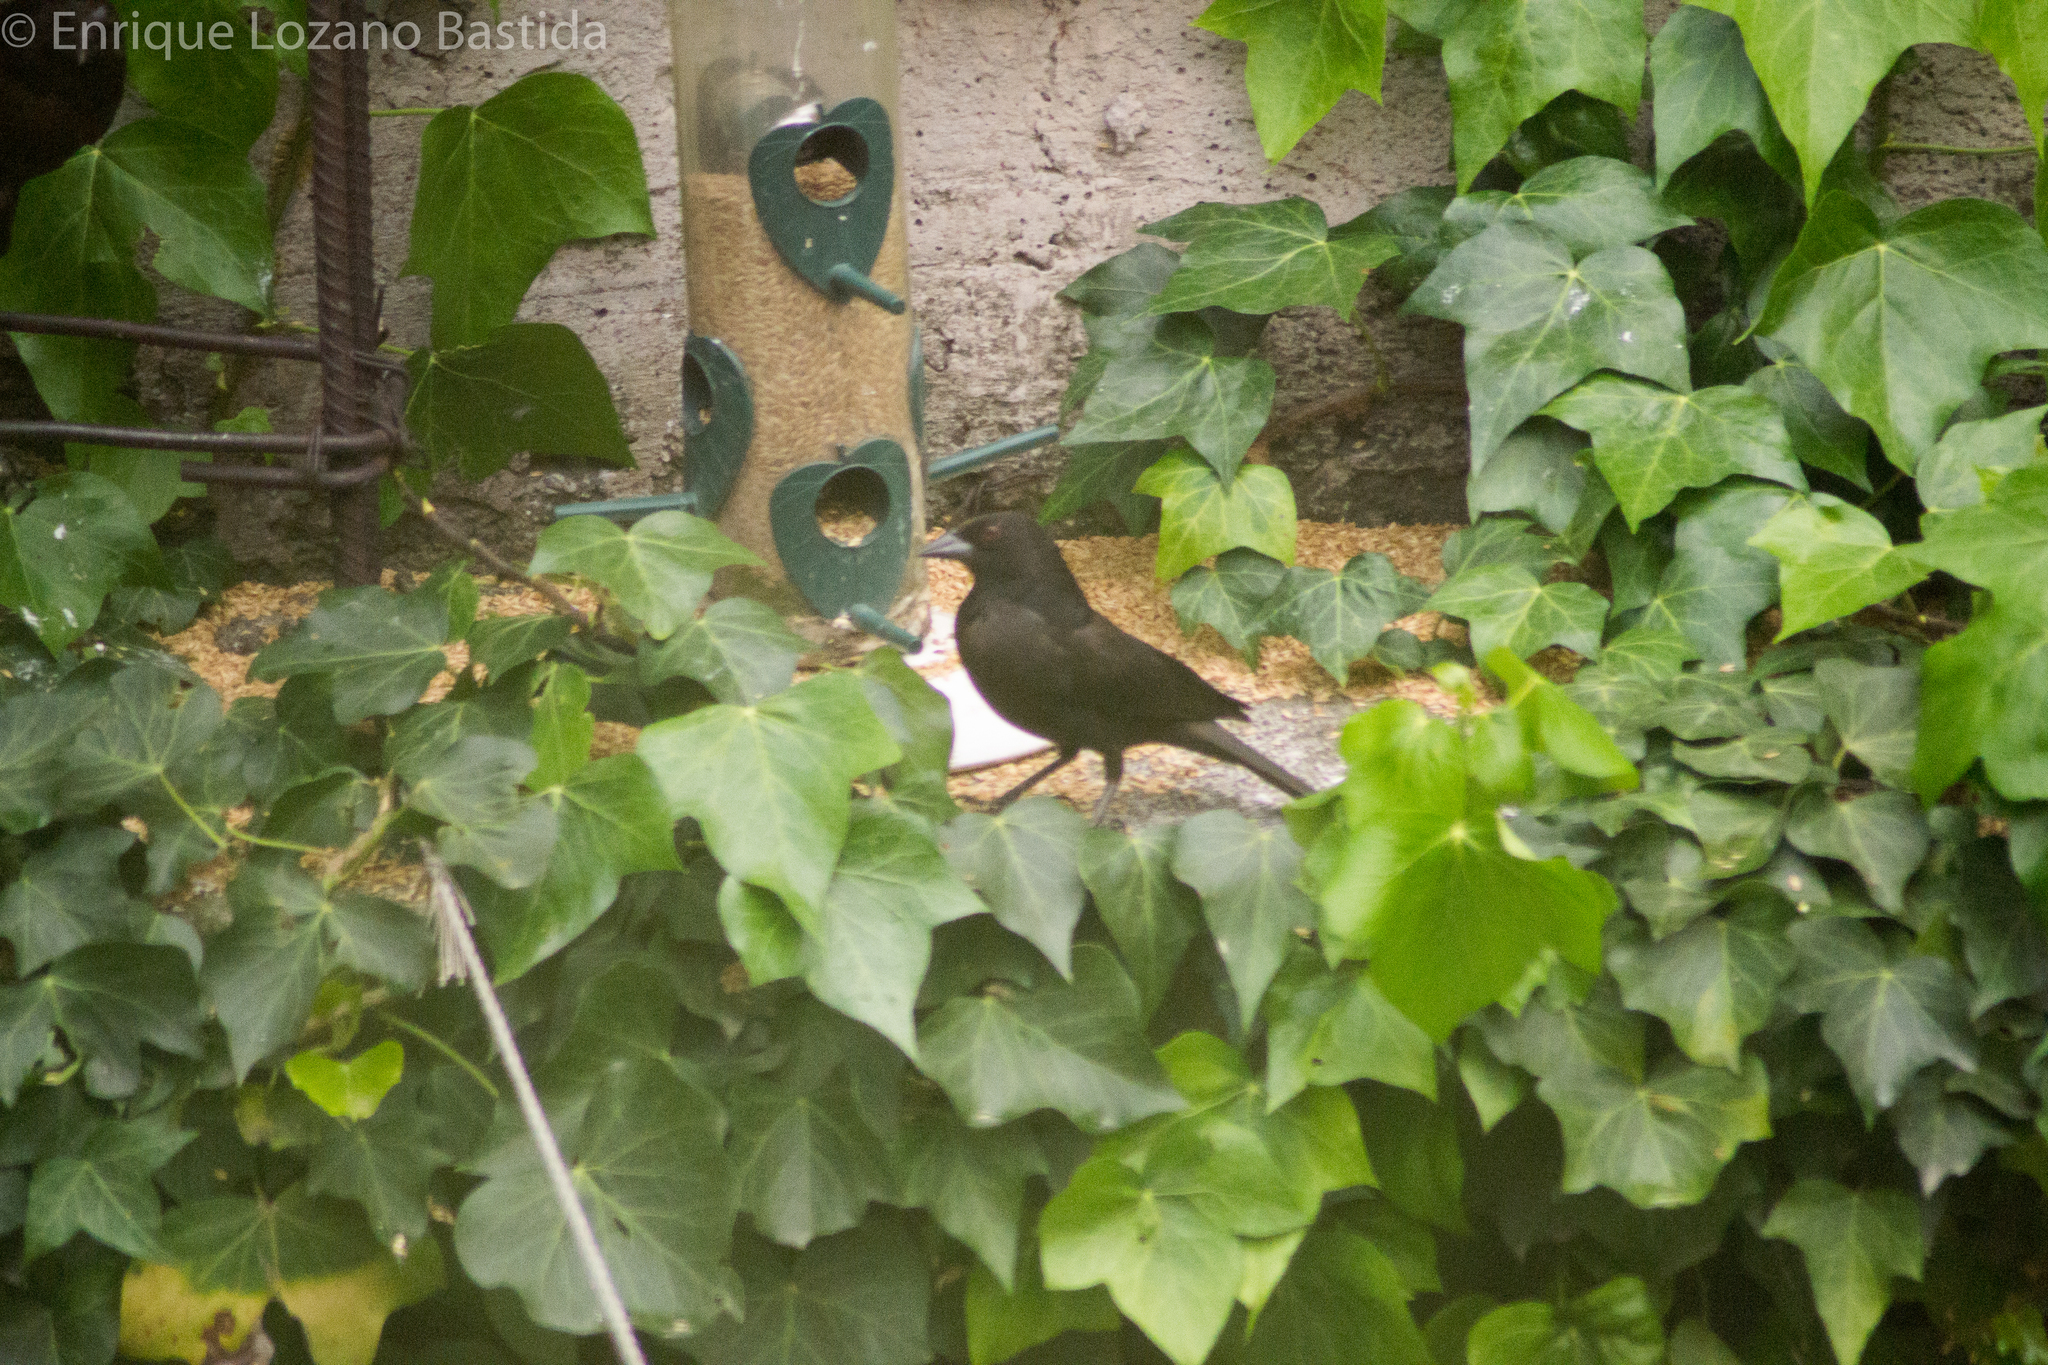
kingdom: Animalia
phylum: Chordata
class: Aves
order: Passeriformes
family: Icteridae
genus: Molothrus
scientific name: Molothrus aeneus
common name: Bronzed cowbird
